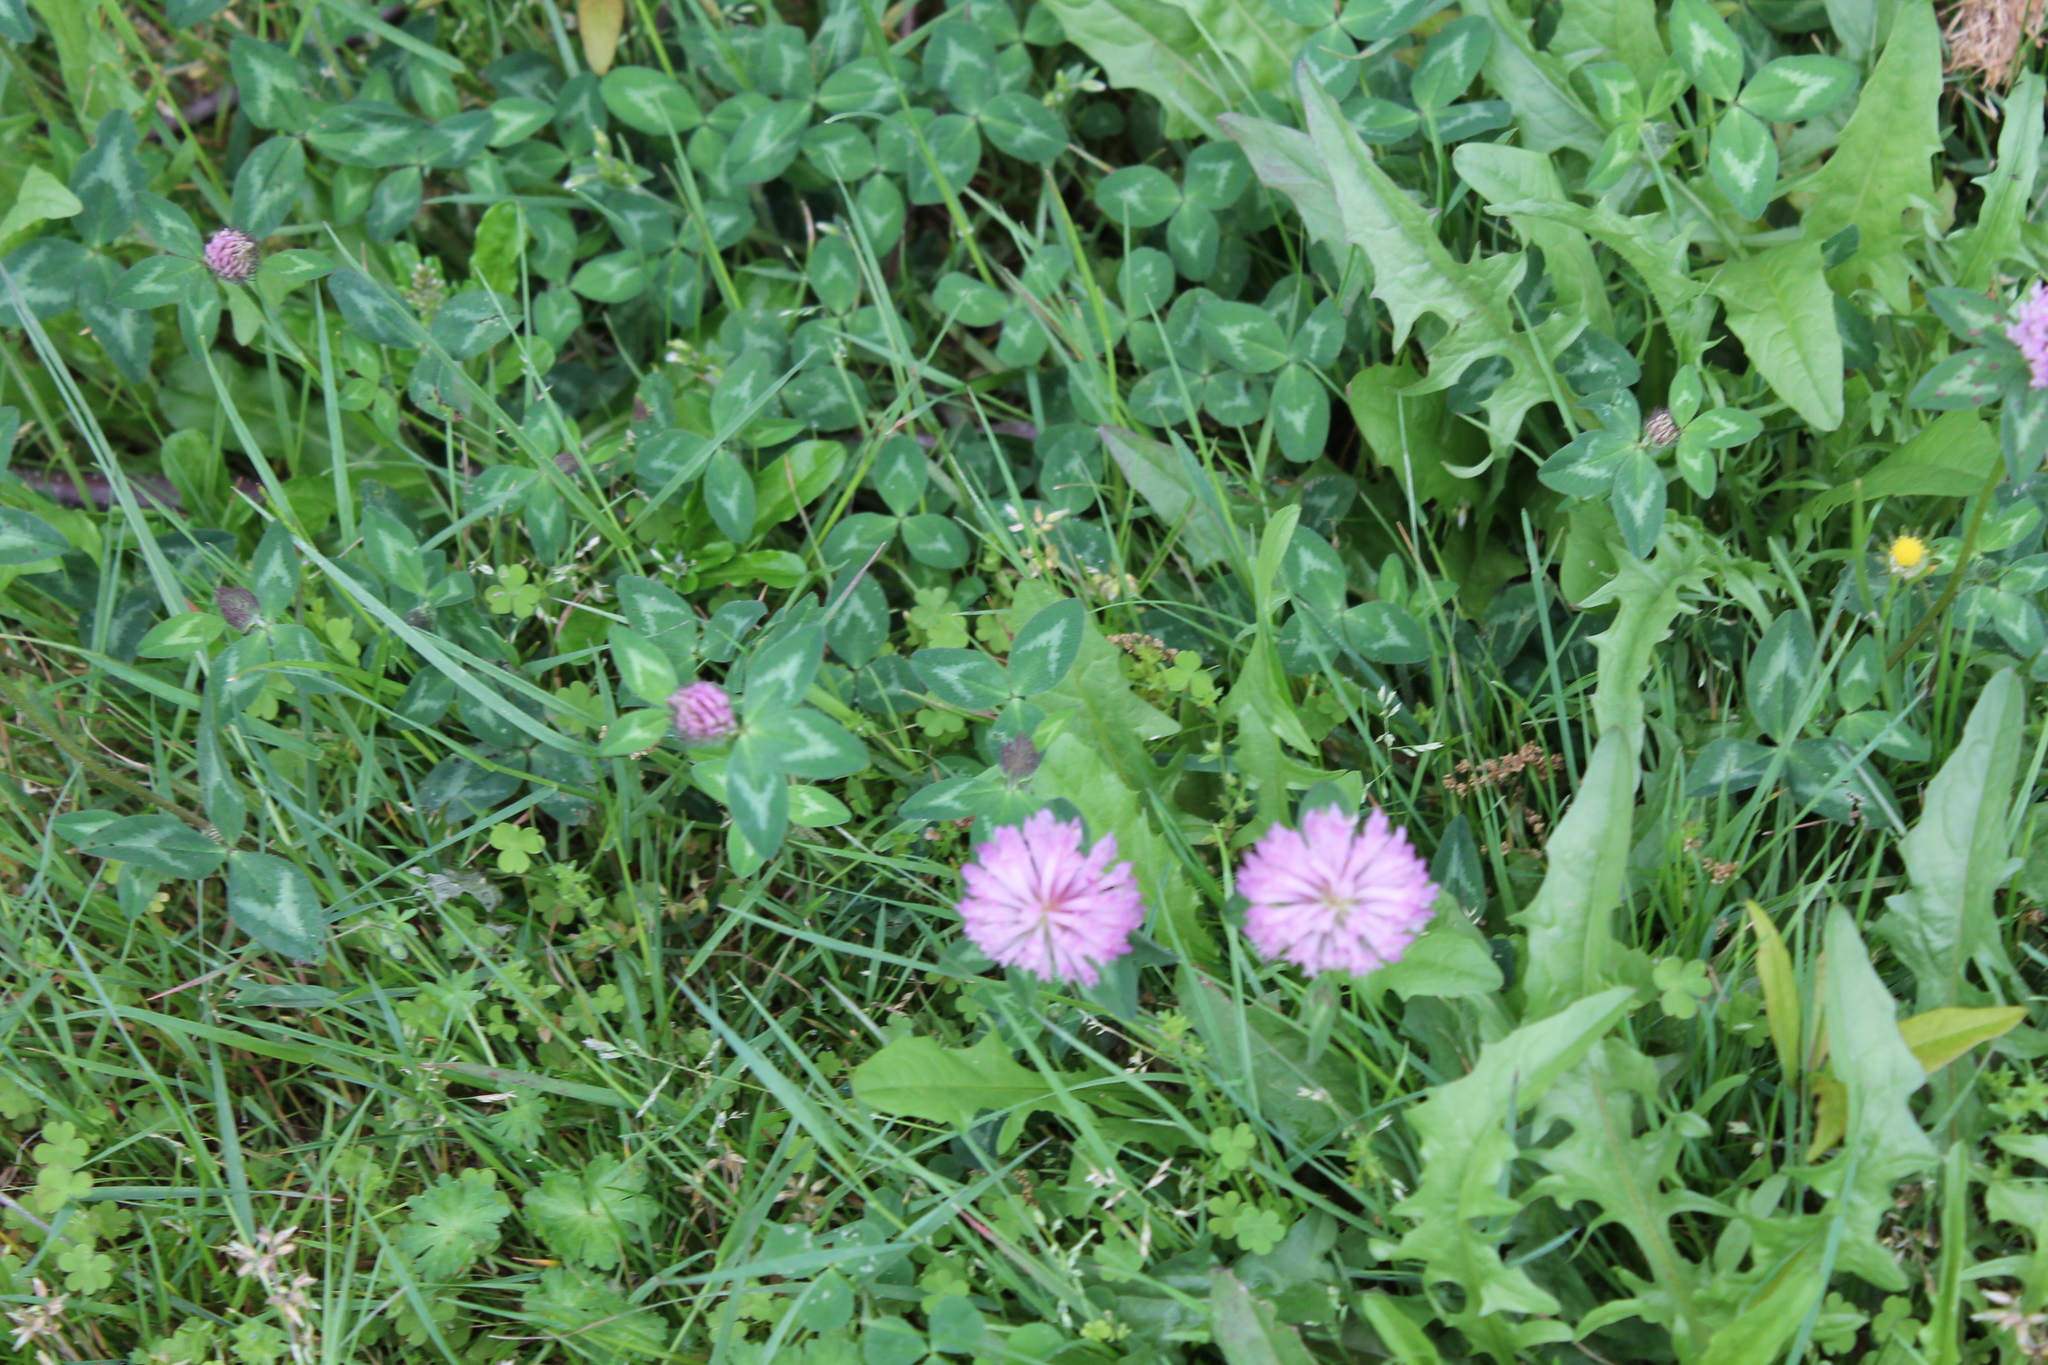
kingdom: Plantae
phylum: Tracheophyta
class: Magnoliopsida
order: Fabales
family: Fabaceae
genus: Trifolium
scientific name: Trifolium pratense
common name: Red clover
